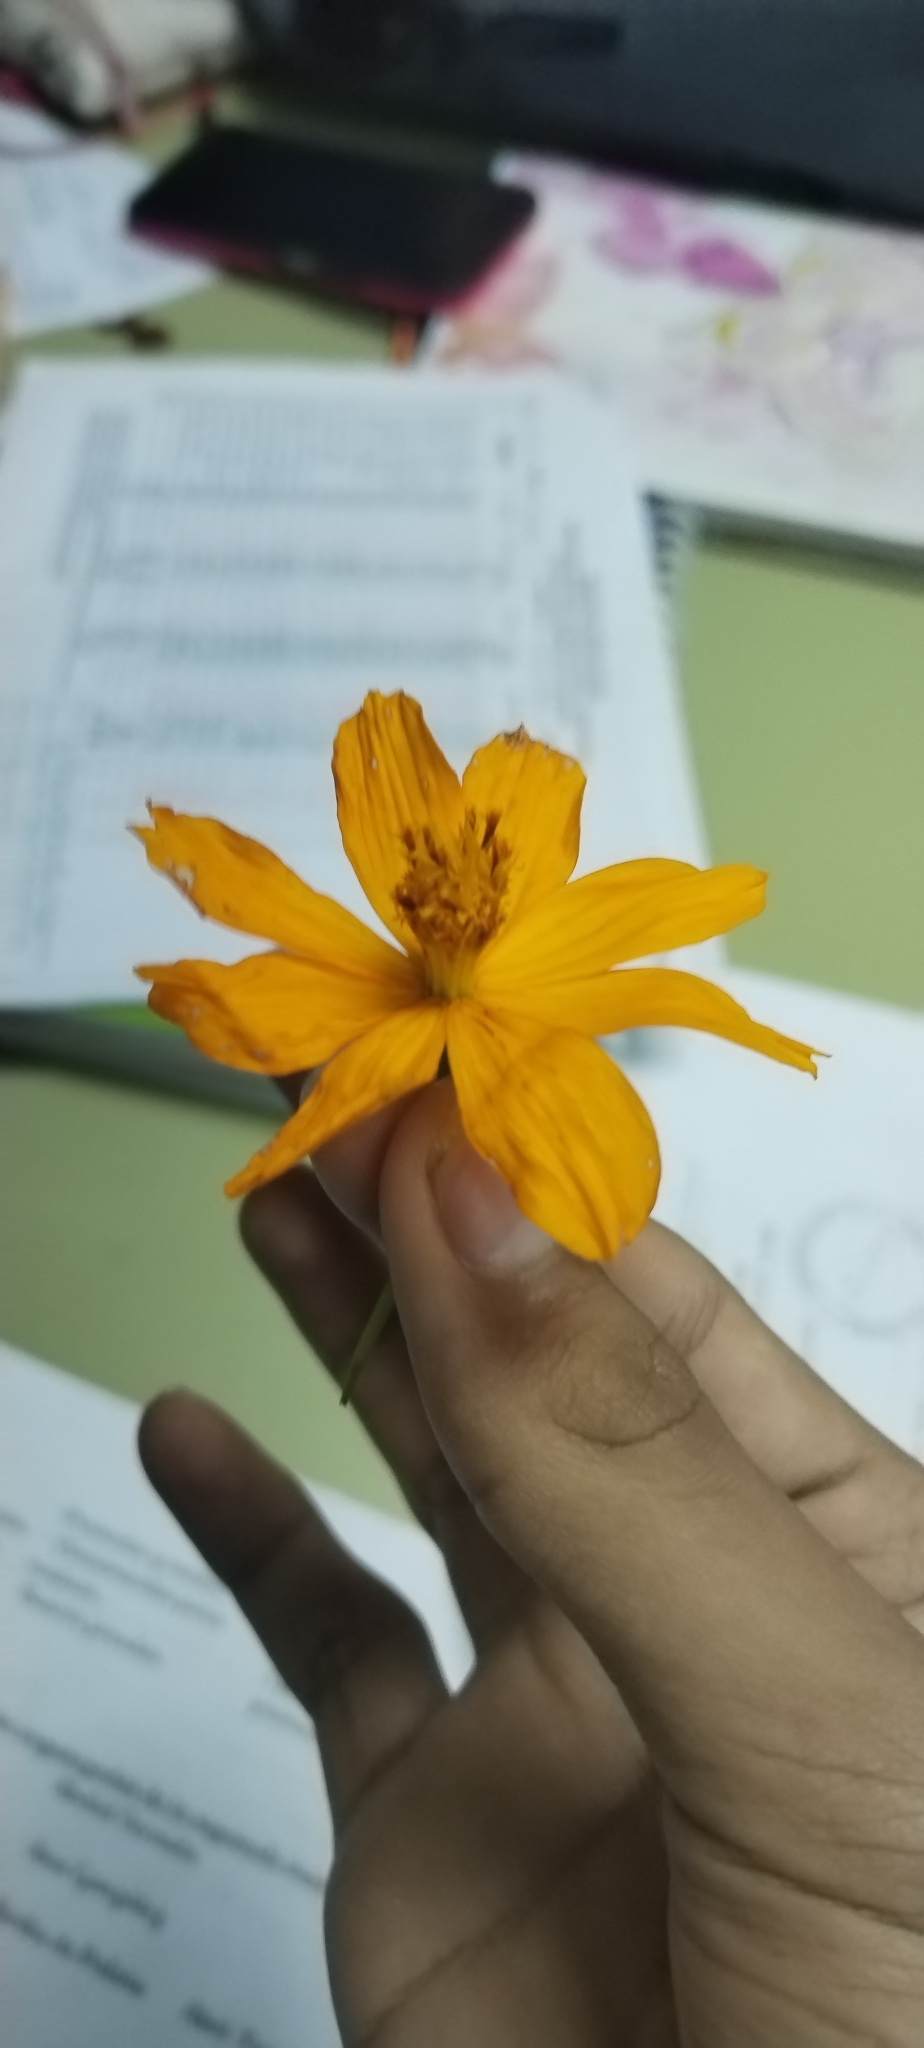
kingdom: Plantae
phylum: Tracheophyta
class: Magnoliopsida
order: Asterales
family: Asteraceae
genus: Cosmos
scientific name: Cosmos sulphureus
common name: Sulphur cosmos
